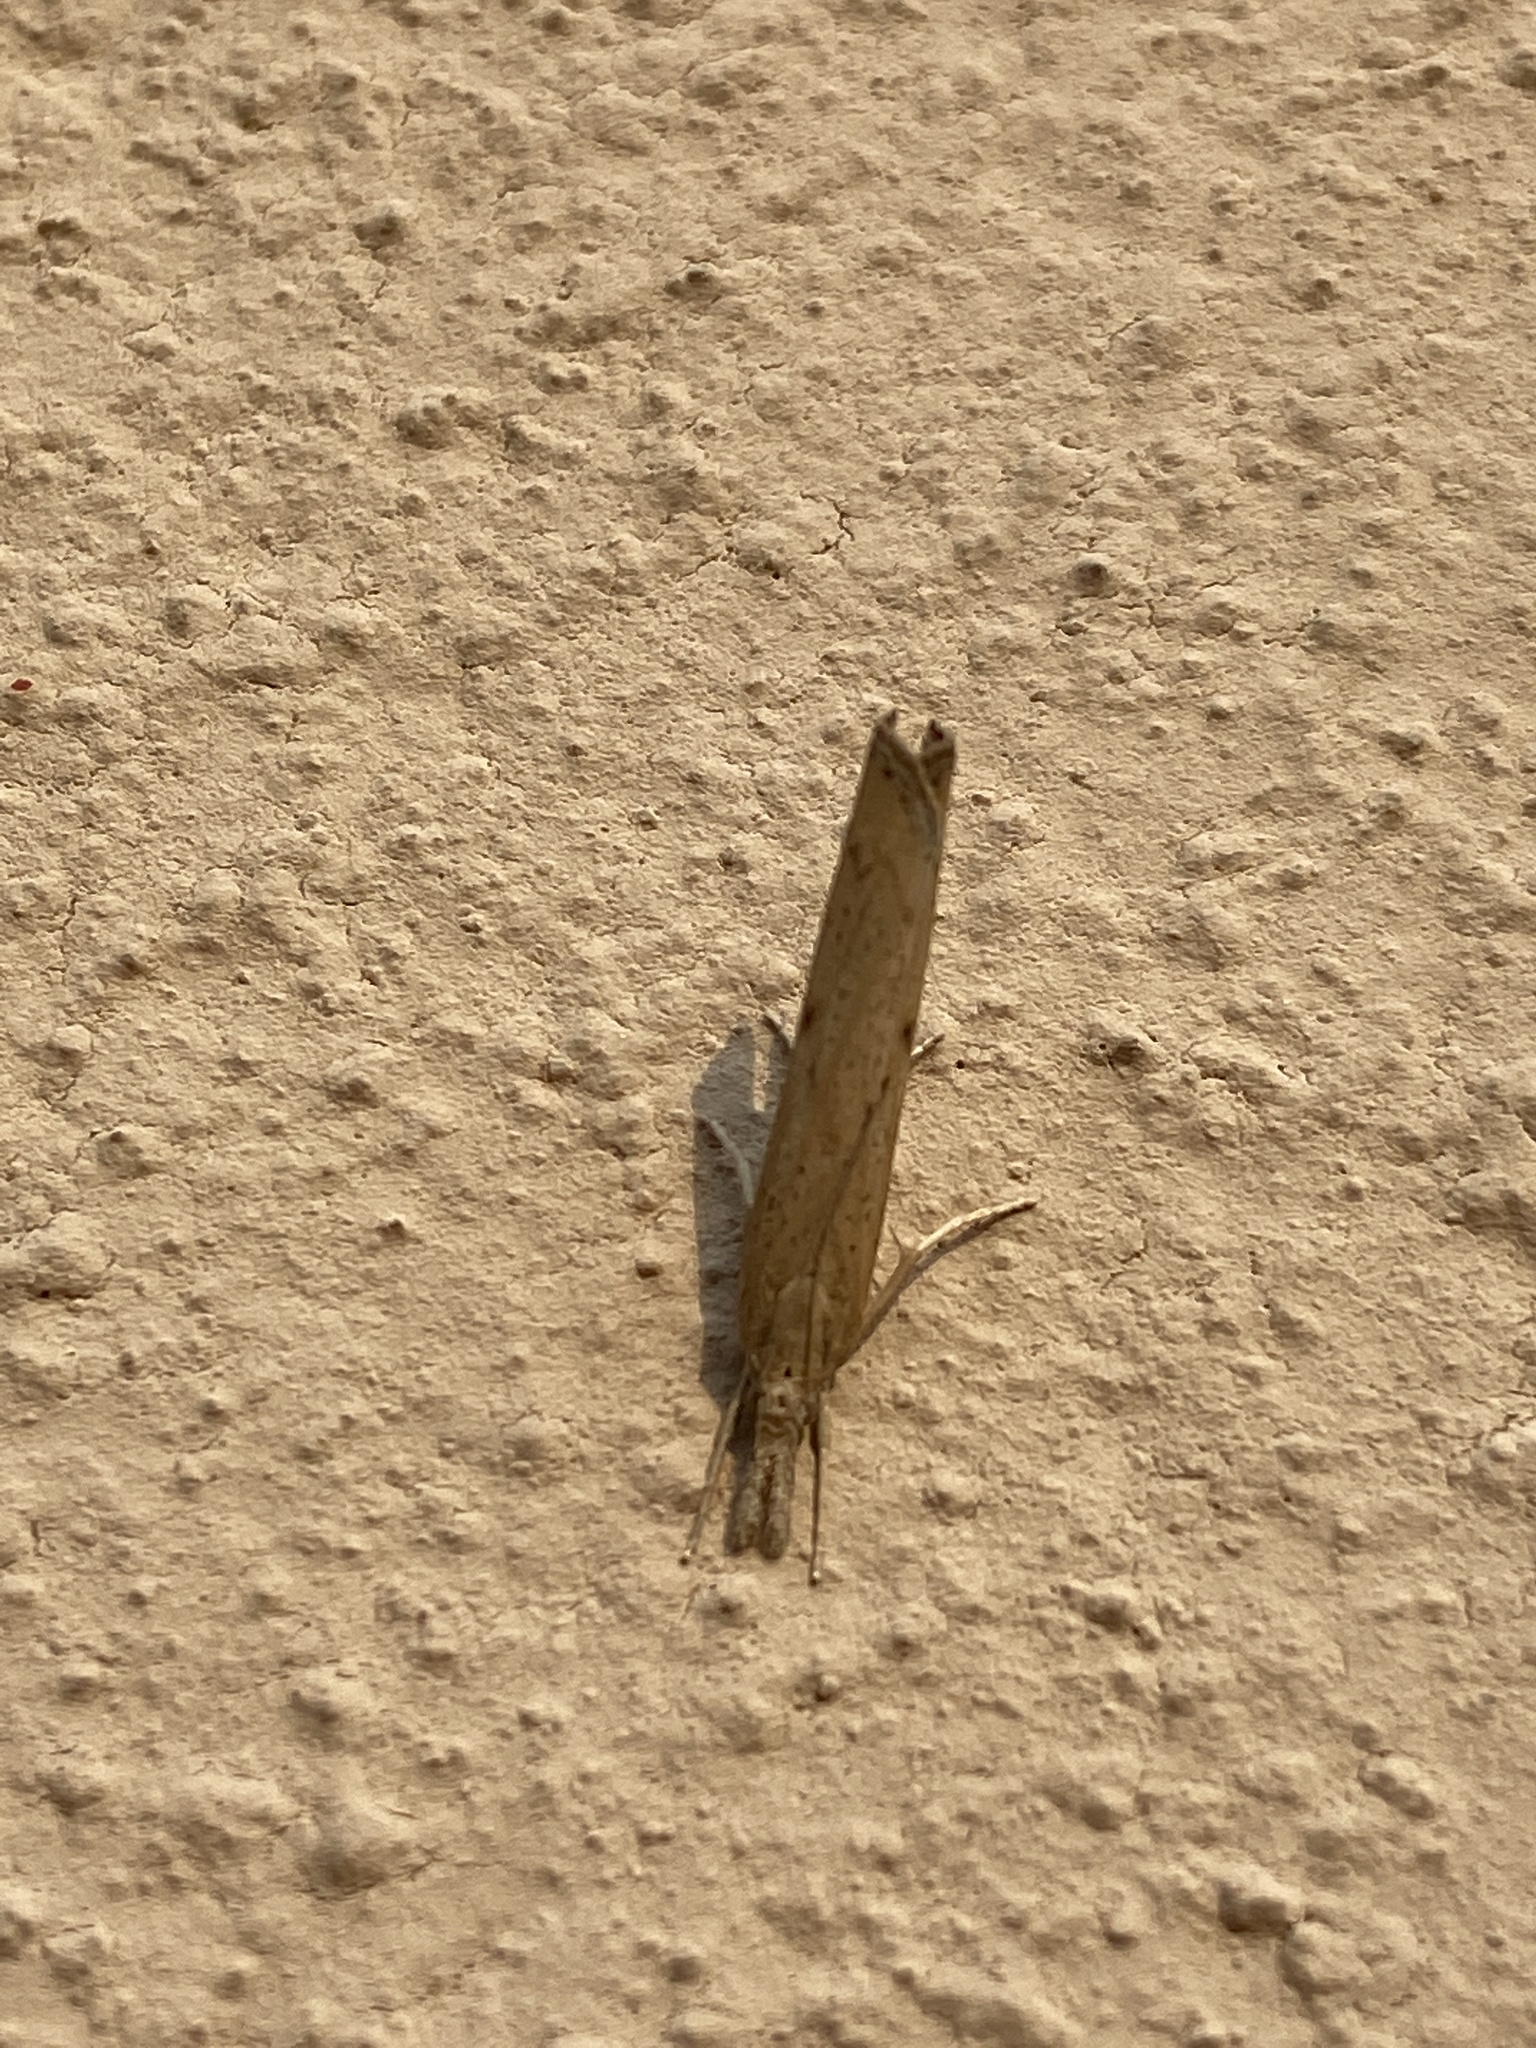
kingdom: Animalia
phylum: Arthropoda
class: Insecta
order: Lepidoptera
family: Crambidae
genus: Pediasia
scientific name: Pediasia contaminella
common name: Waste grass-veneer
